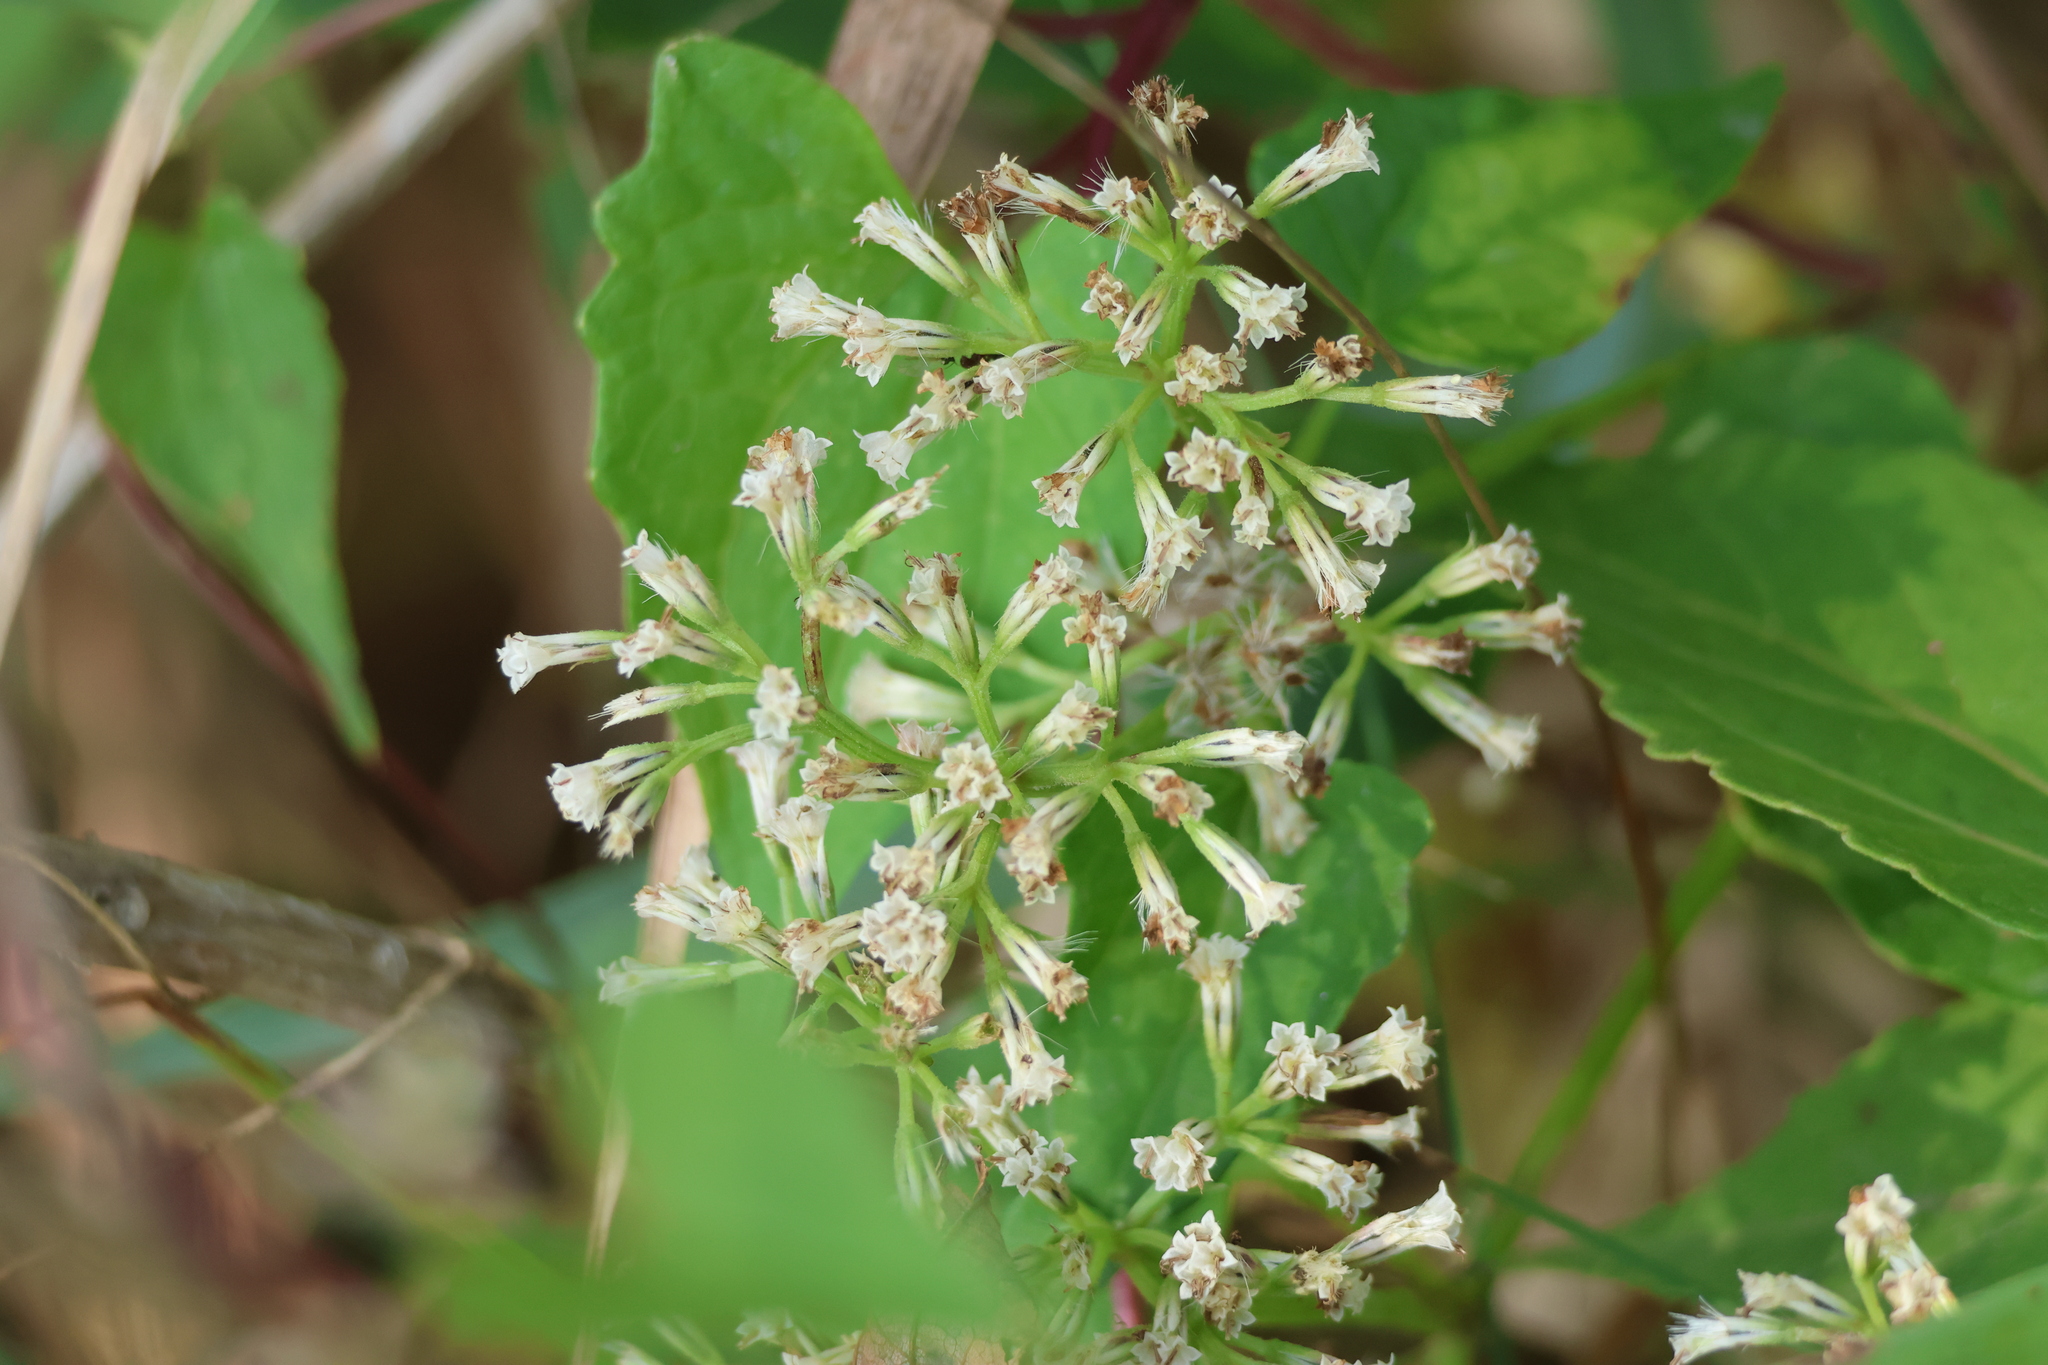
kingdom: Plantae
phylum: Tracheophyta
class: Magnoliopsida
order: Asterales
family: Asteraceae
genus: Mikania
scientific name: Mikania scandens
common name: Climbing hempvine
